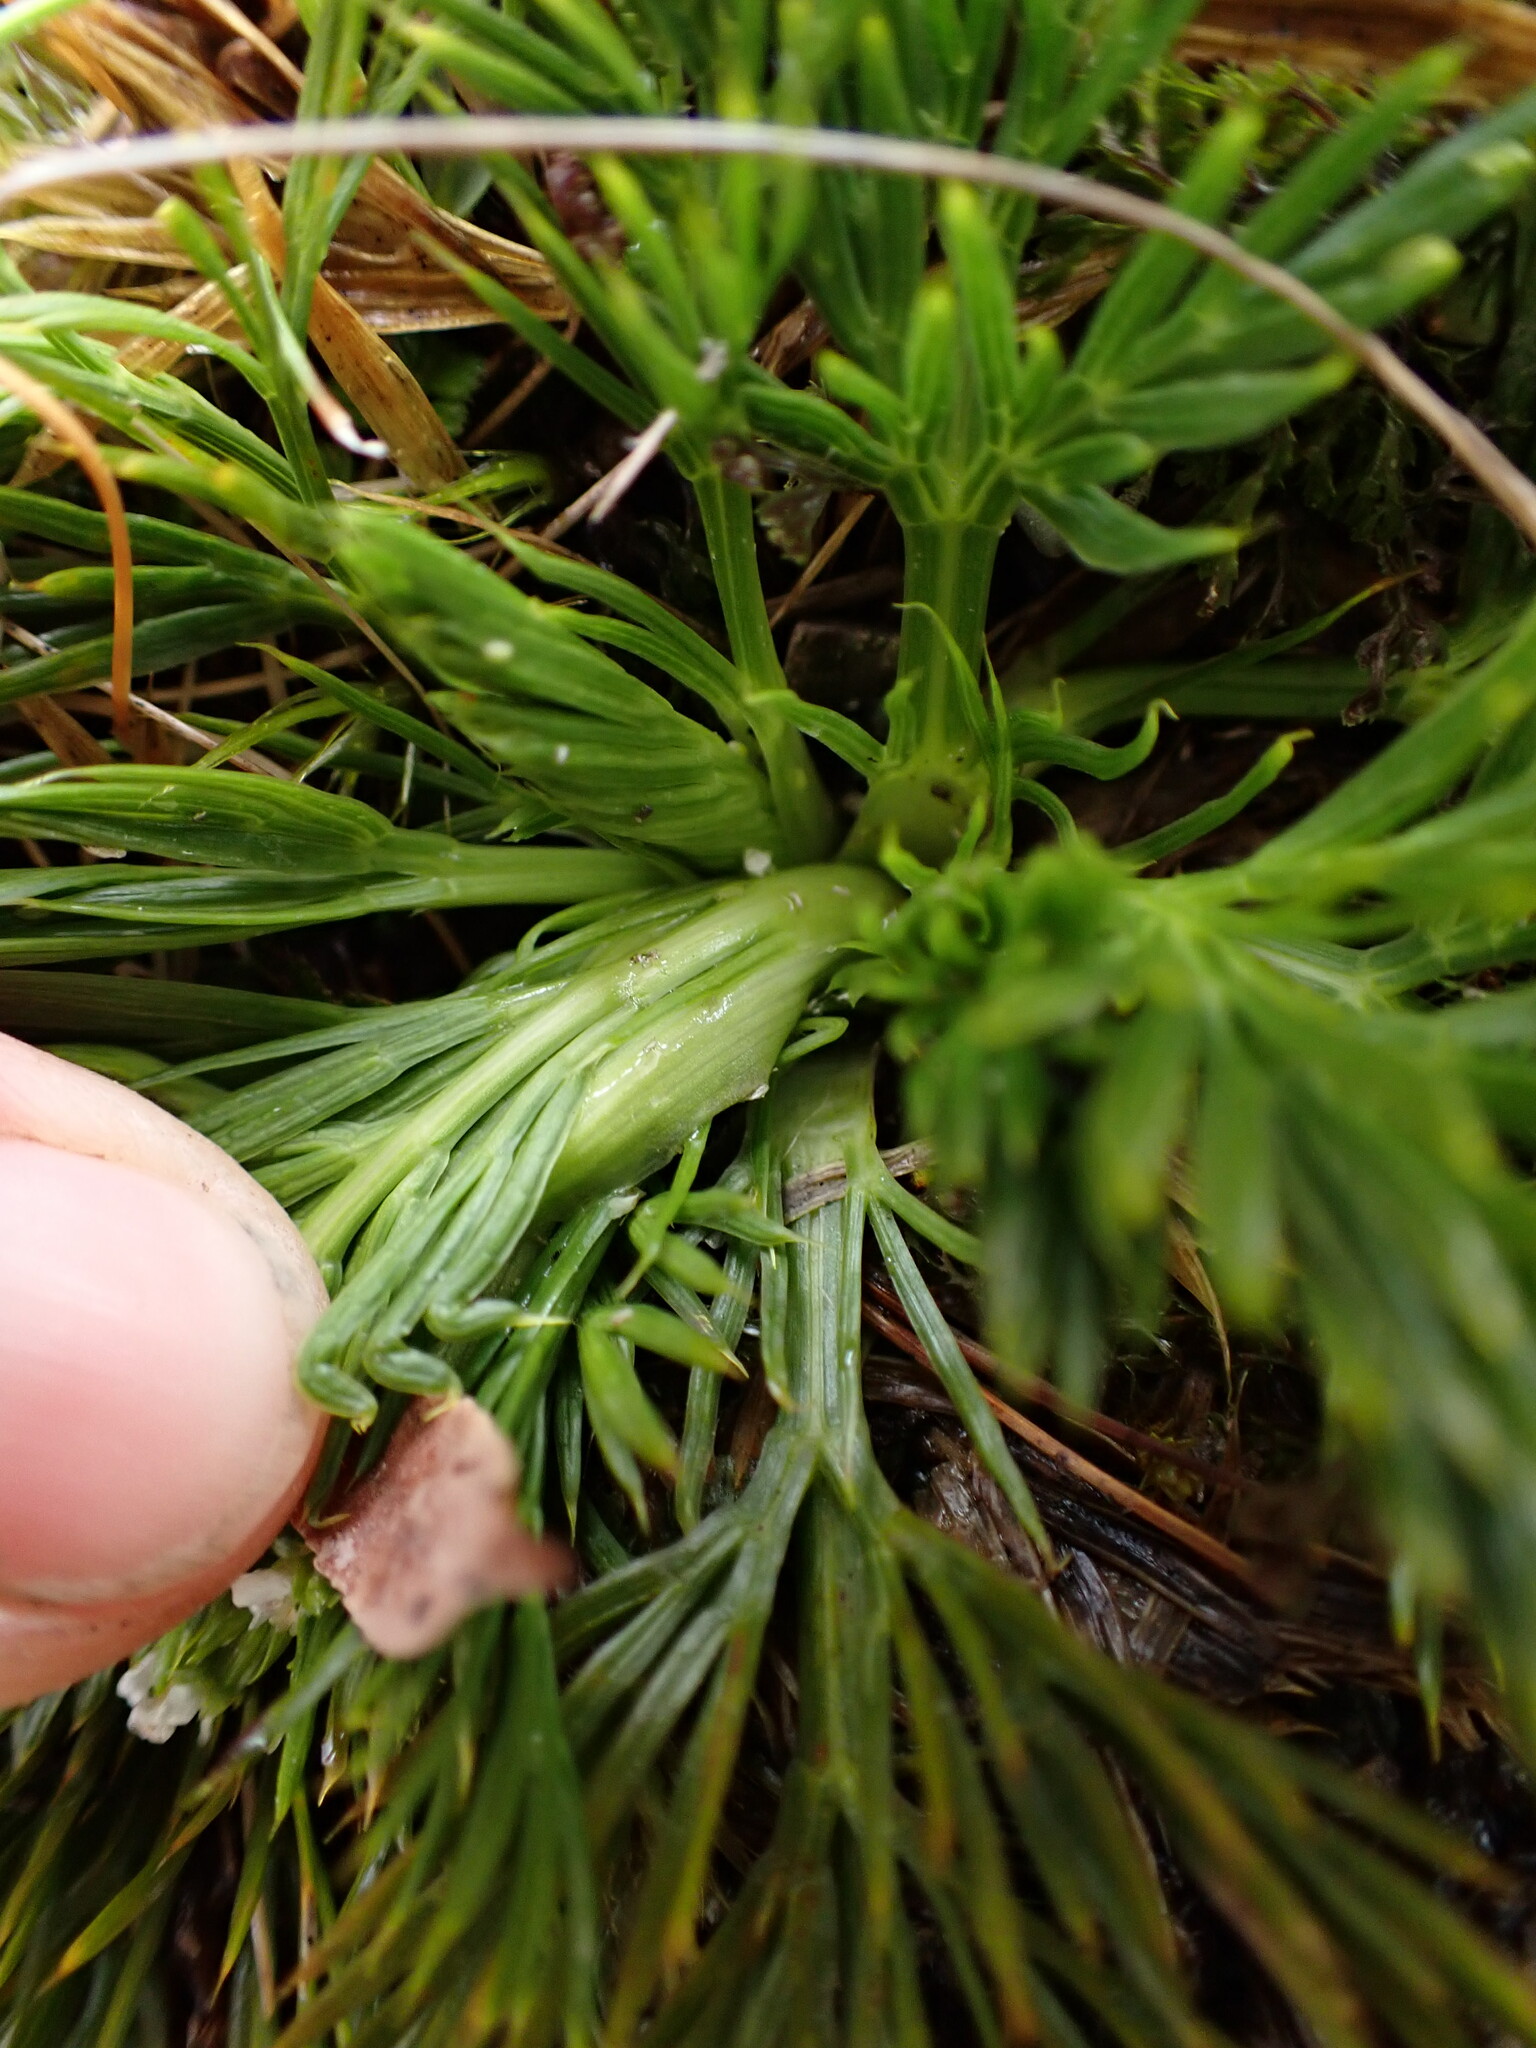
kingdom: Plantae
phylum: Tracheophyta
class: Magnoliopsida
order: Apiales
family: Apiaceae
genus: Aciphylla
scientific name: Aciphylla dissecta
